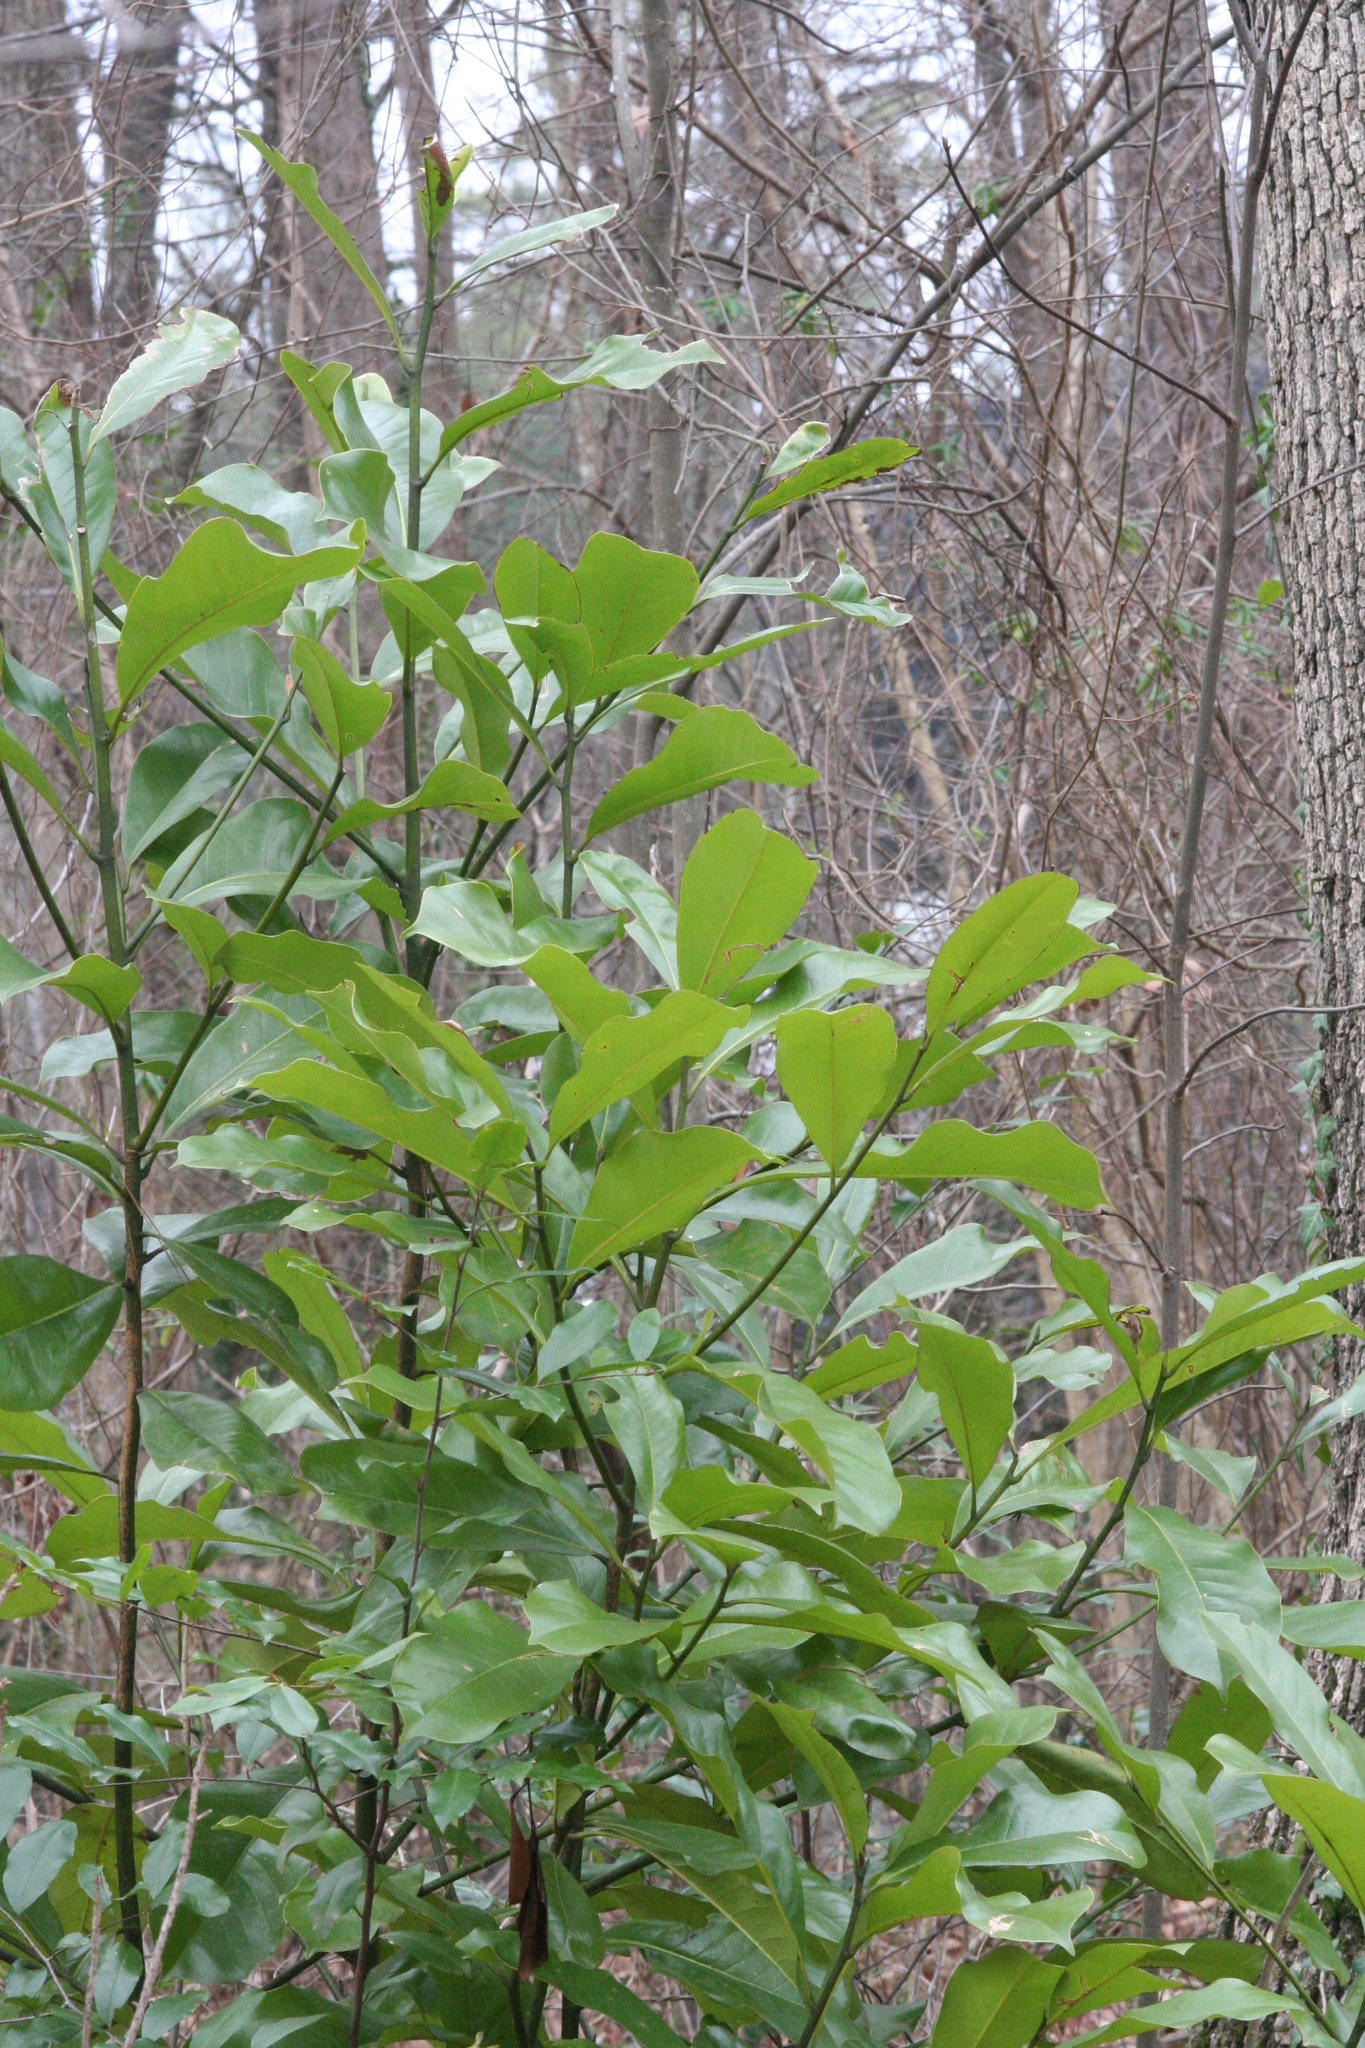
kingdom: Plantae
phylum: Tracheophyta
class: Magnoliopsida
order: Magnoliales
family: Magnoliaceae
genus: Magnolia
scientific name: Magnolia grandiflora
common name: Southern magnolia
